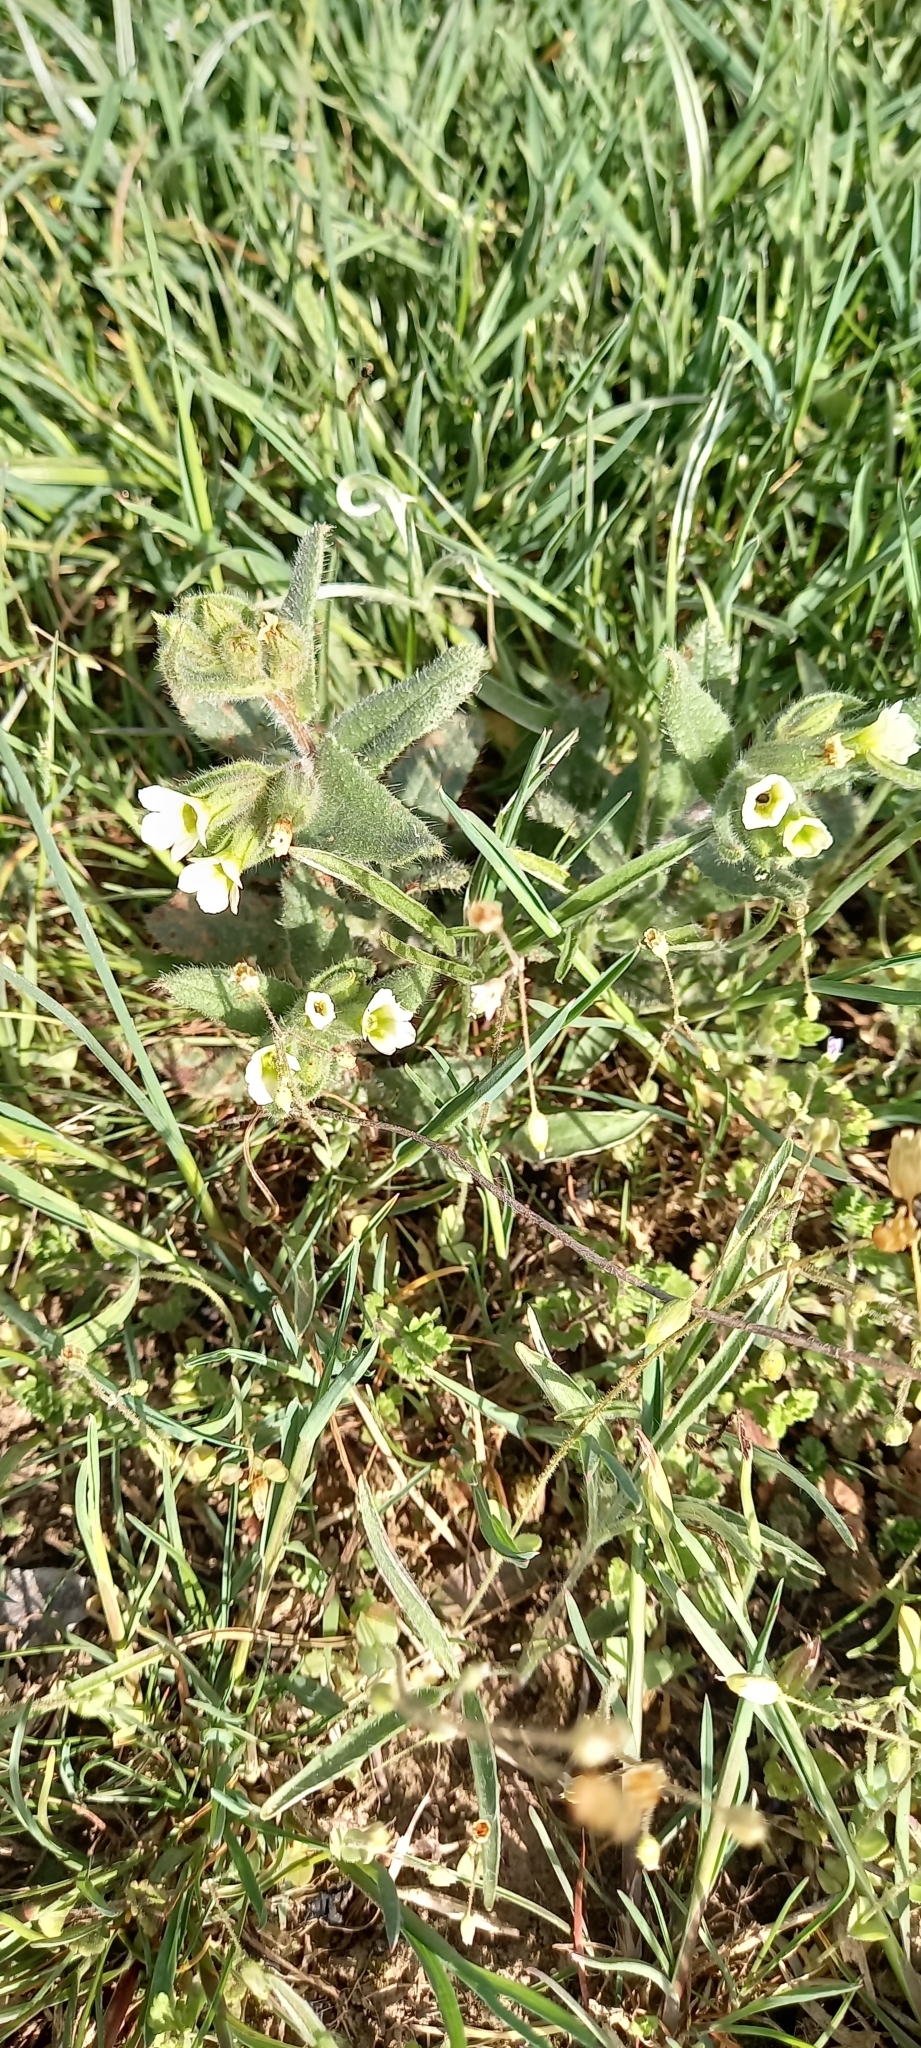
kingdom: Plantae
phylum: Tracheophyta
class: Magnoliopsida
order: Boraginales
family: Boraginaceae
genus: Nonea
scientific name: Nonea lutea
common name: Yellow nonea
